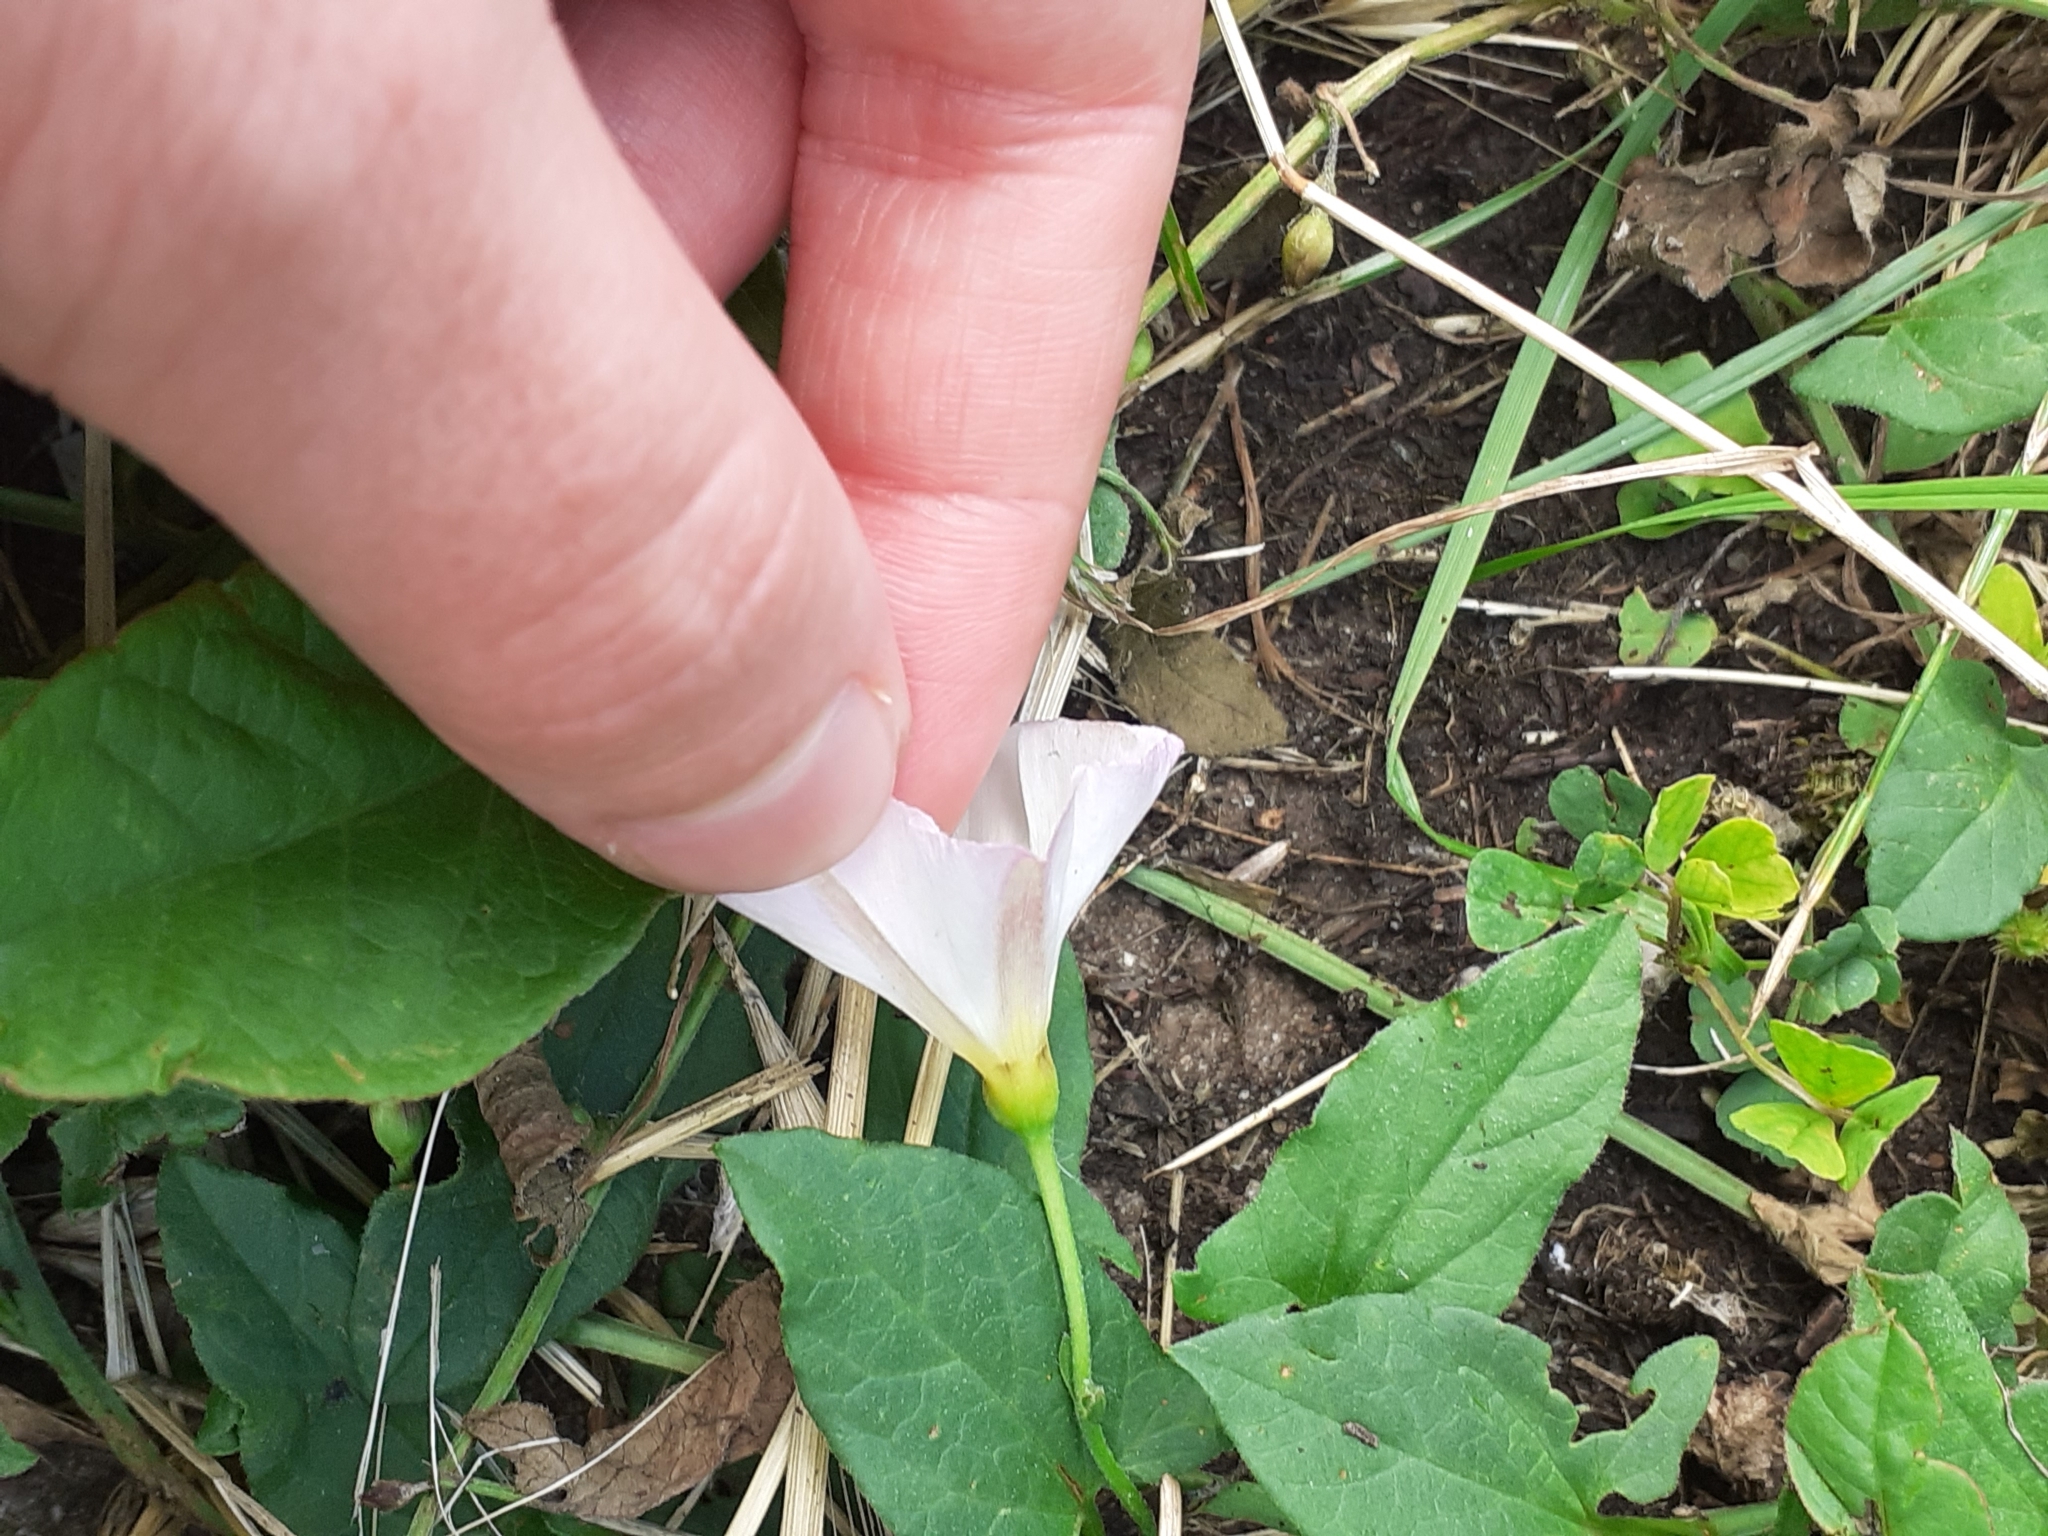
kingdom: Plantae
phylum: Tracheophyta
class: Magnoliopsida
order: Solanales
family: Convolvulaceae
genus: Convolvulus
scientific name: Convolvulus arvensis
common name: Field bindweed
